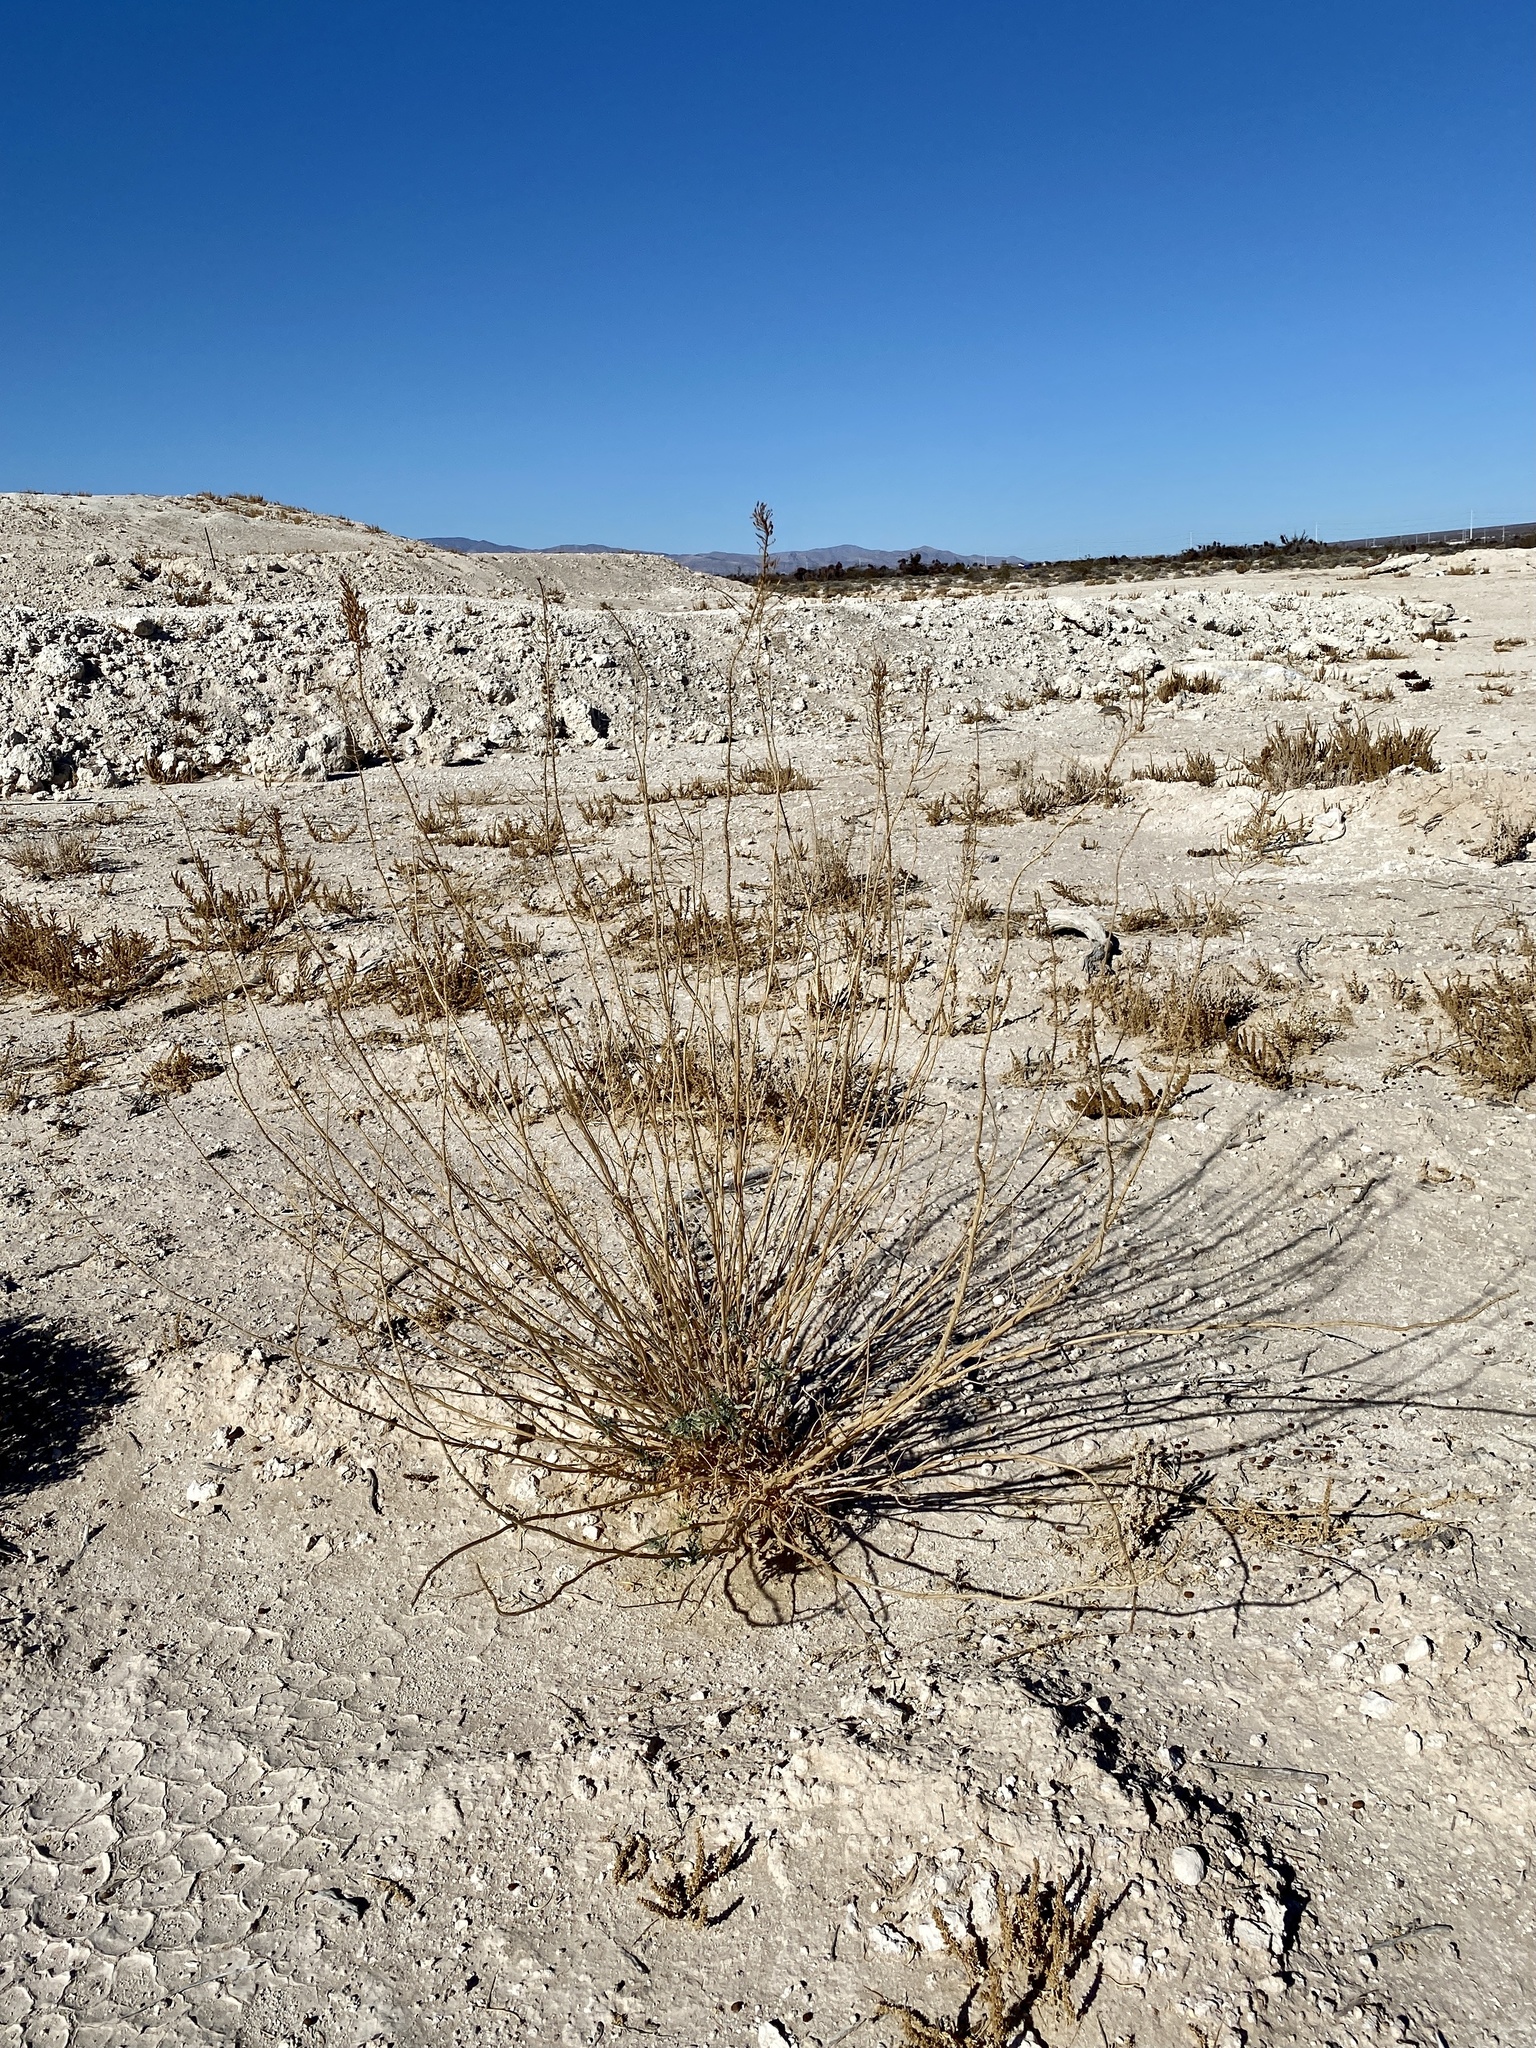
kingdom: Plantae
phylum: Tracheophyta
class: Magnoliopsida
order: Brassicales
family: Brassicaceae
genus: Stanleya
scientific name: Stanleya pinnata
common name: Prince's-plume
